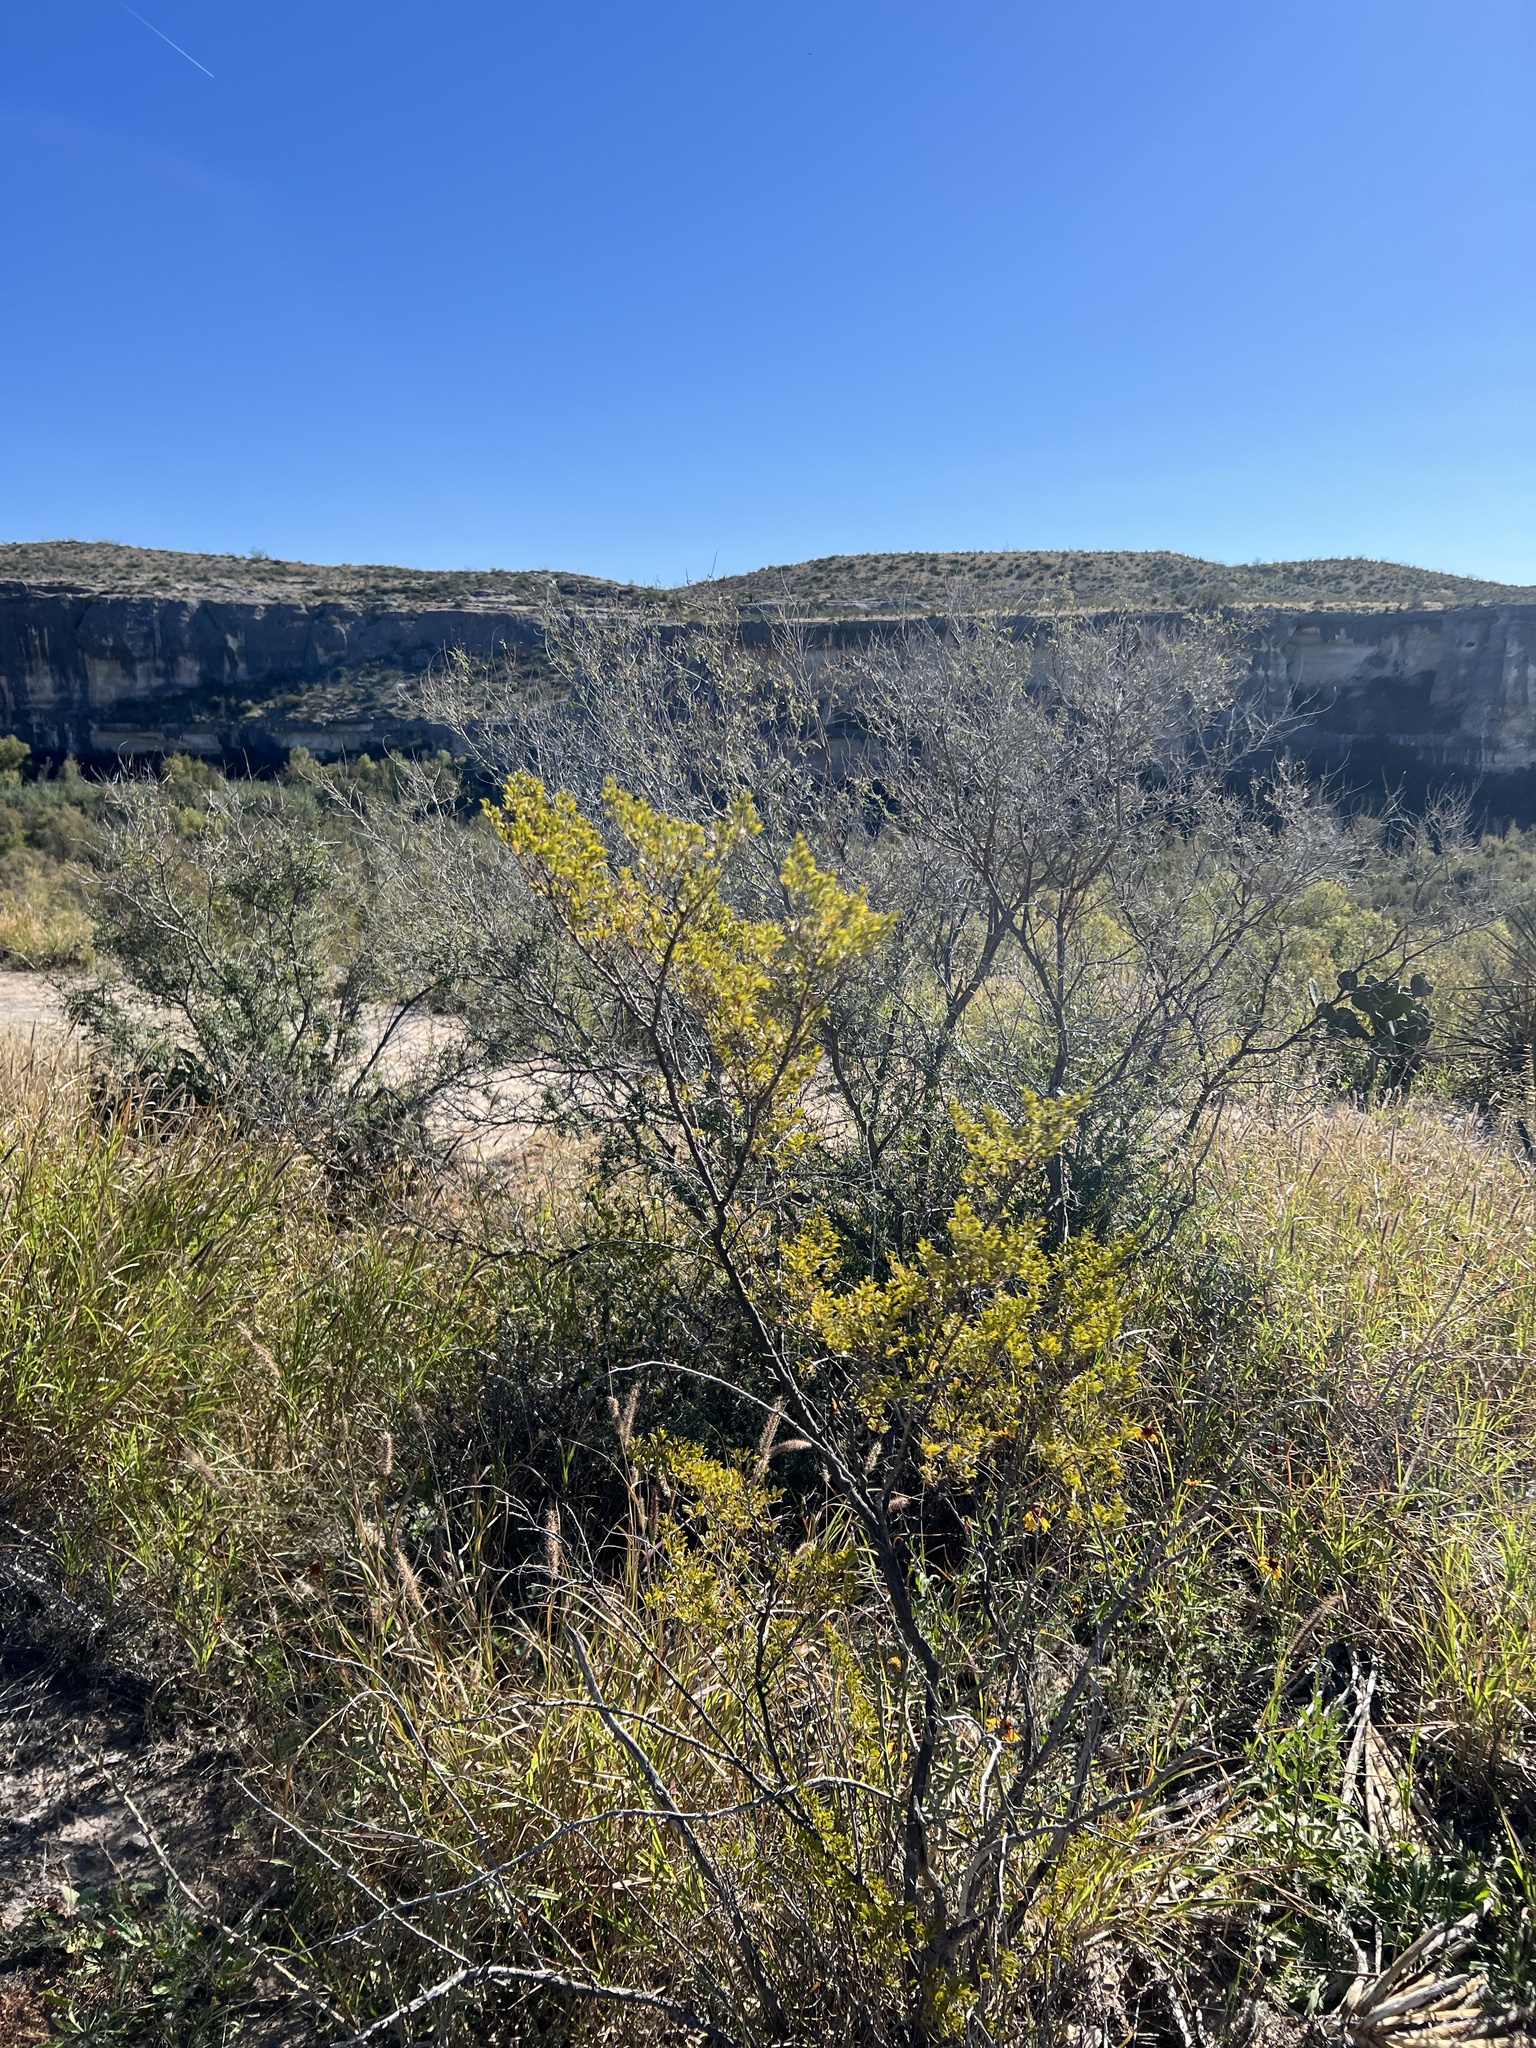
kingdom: Plantae
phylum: Tracheophyta
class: Magnoliopsida
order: Zygophyllales
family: Zygophyllaceae
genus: Larrea
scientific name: Larrea tridentata
